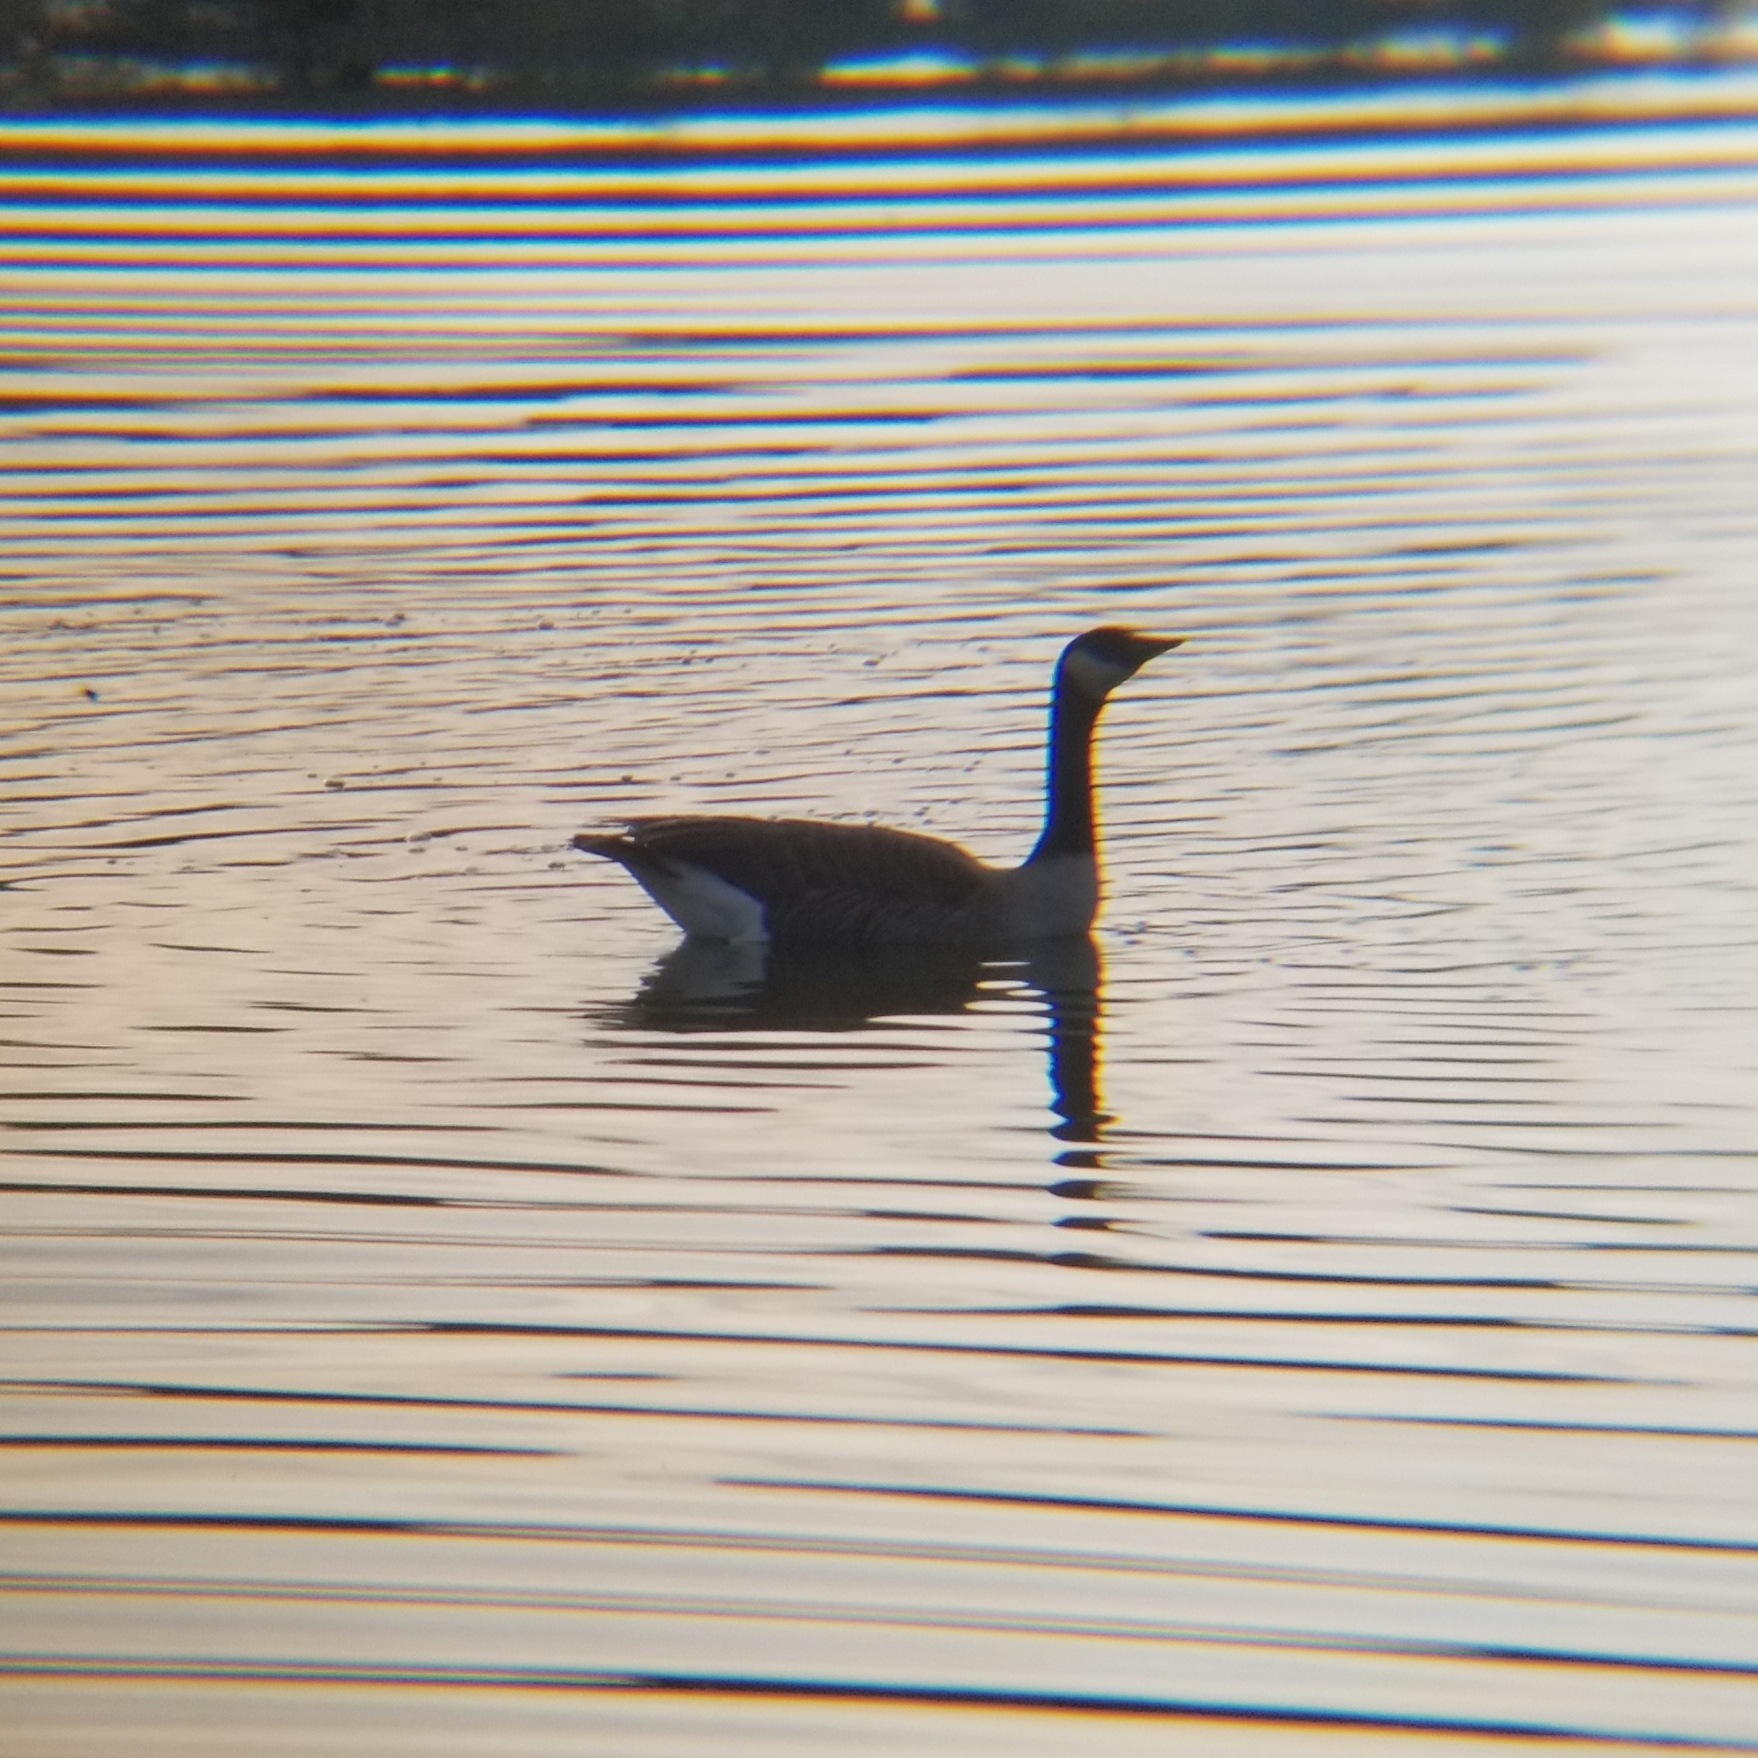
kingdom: Animalia
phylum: Chordata
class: Aves
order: Anseriformes
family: Anatidae
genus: Branta
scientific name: Branta canadensis
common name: Canada goose
